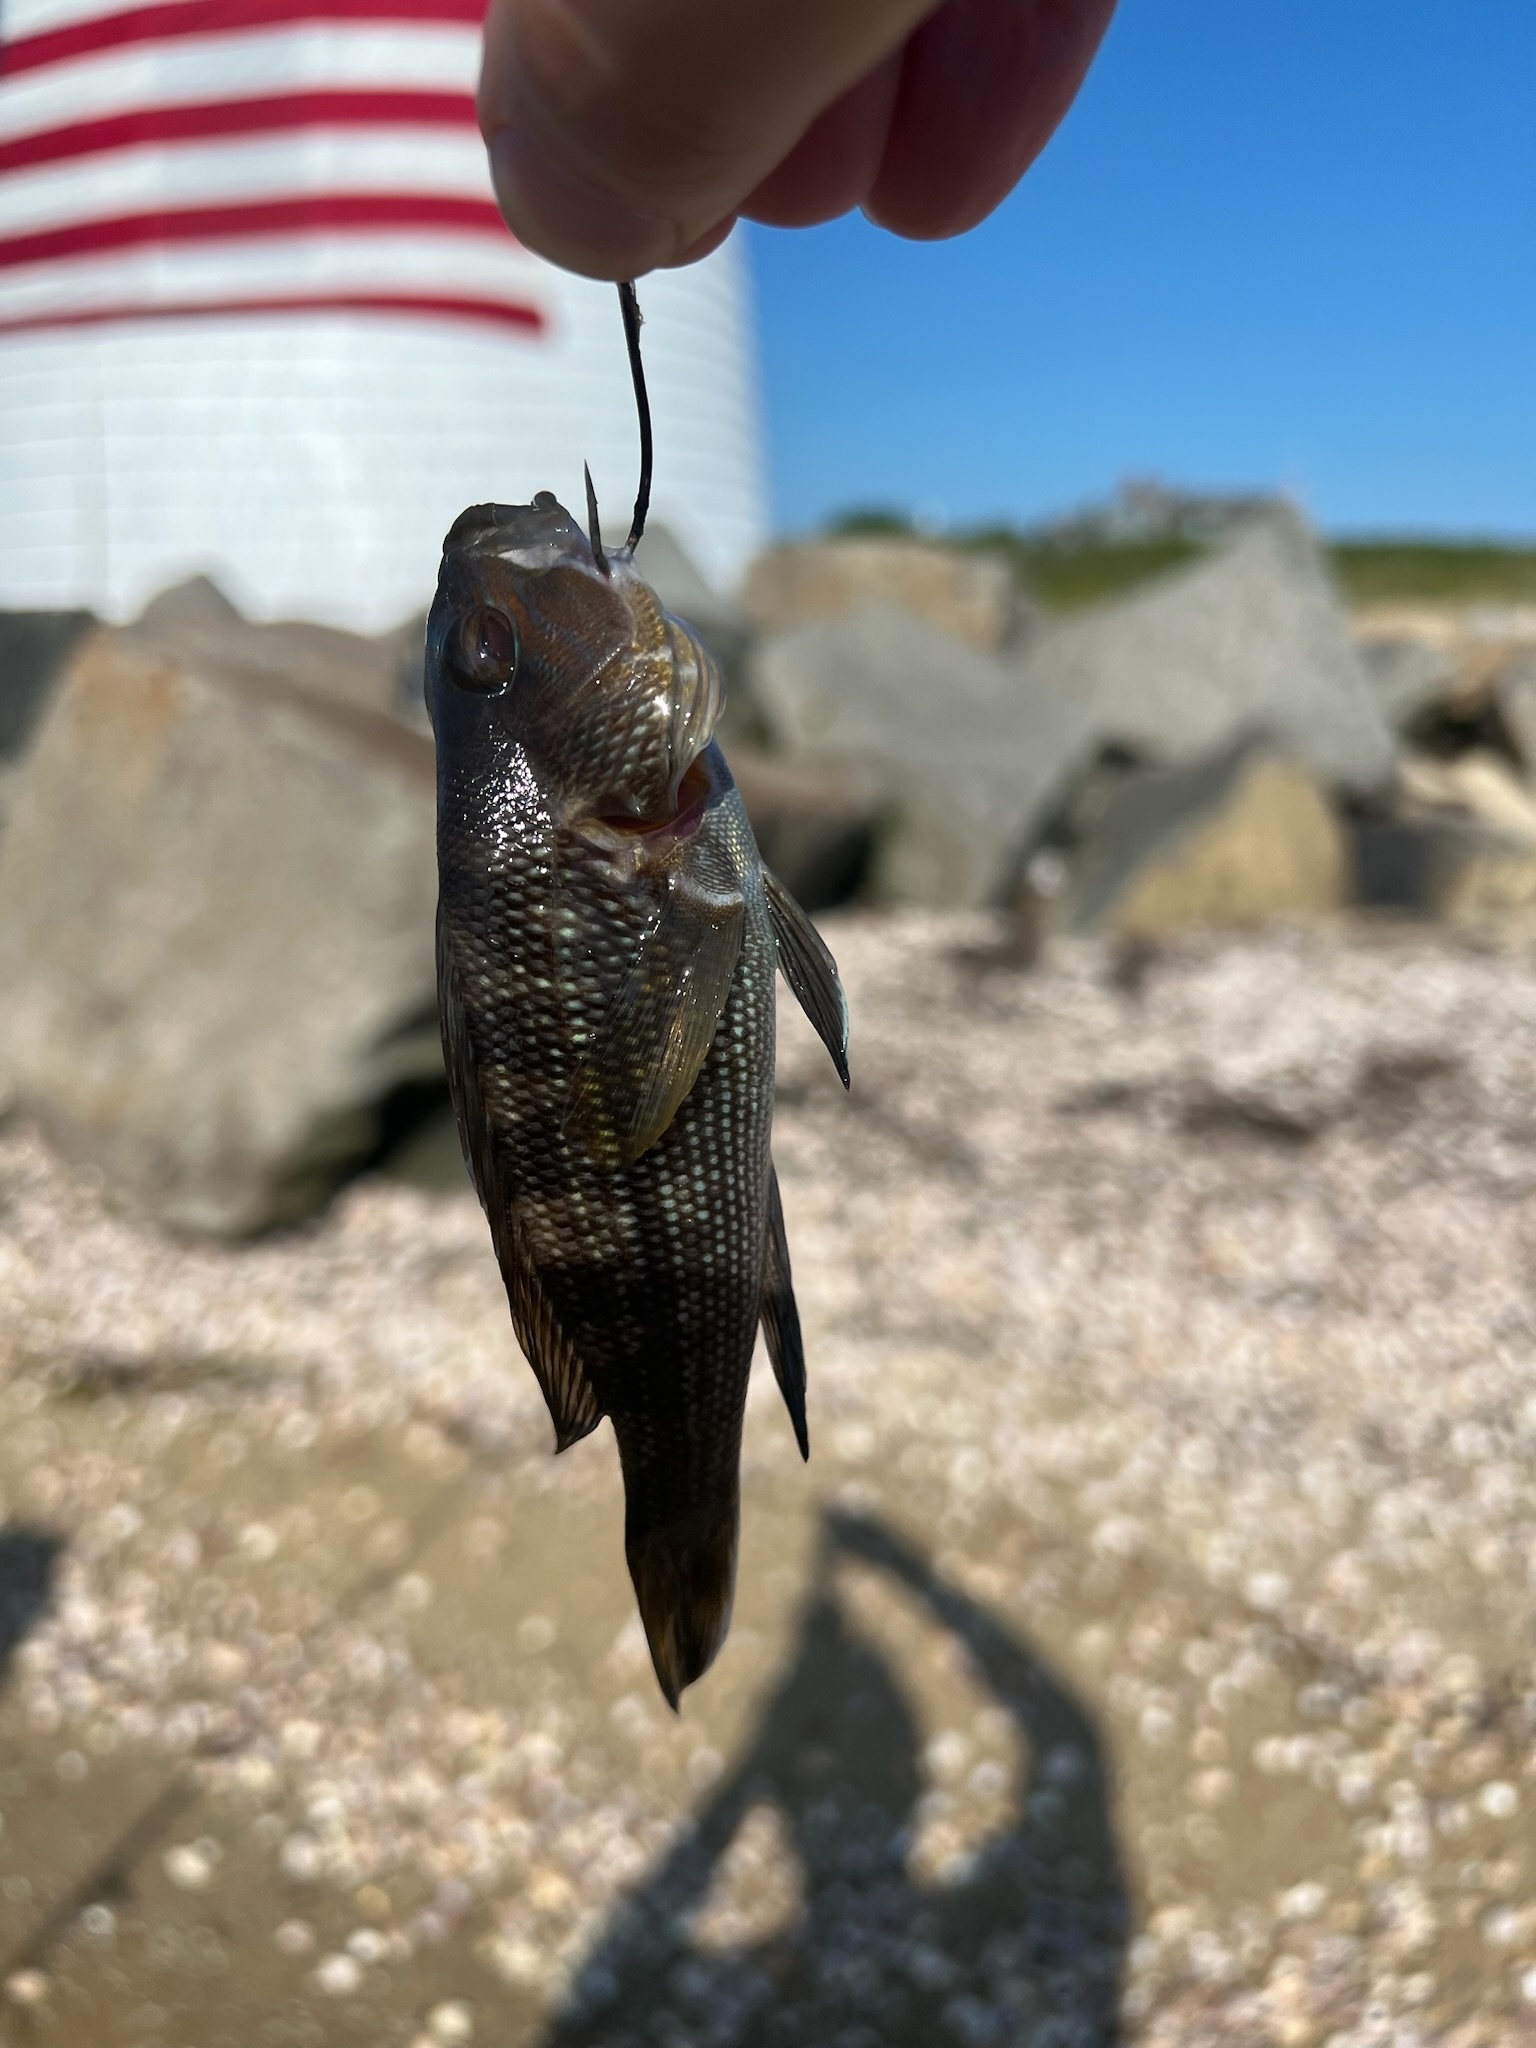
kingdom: Animalia
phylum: Chordata
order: Perciformes
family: Serranidae
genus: Centropristis
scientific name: Centropristis striata
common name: Black sea bass
